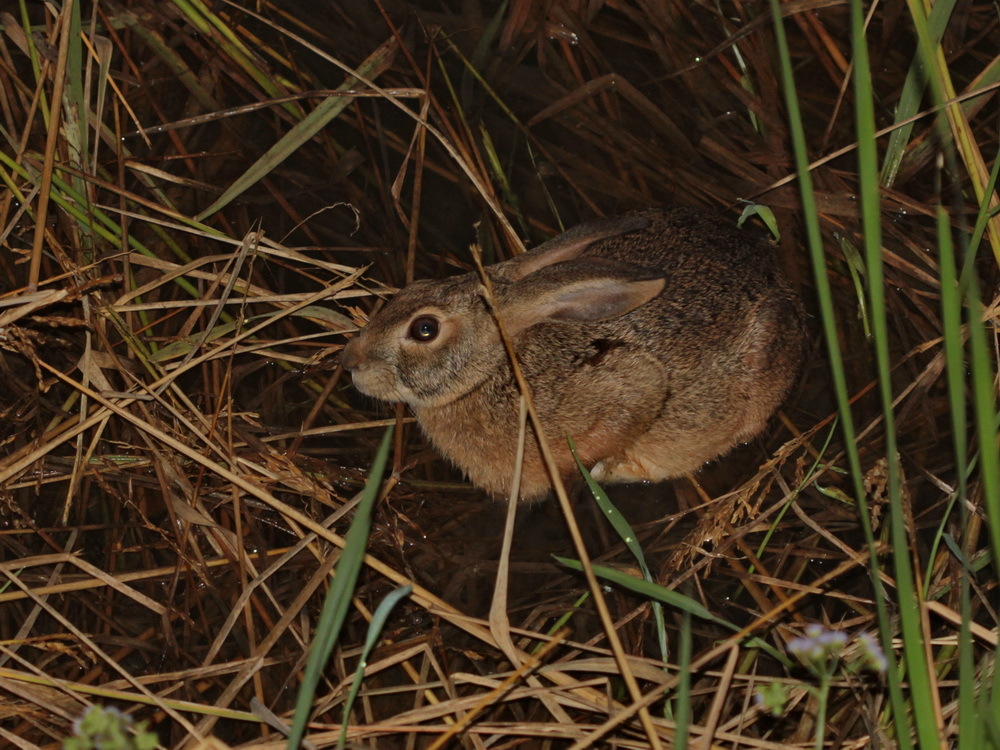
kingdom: Animalia
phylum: Chordata
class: Mammalia
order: Lagomorpha
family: Leporidae
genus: Lepus
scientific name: Lepus peguensis
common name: Burmese hare
